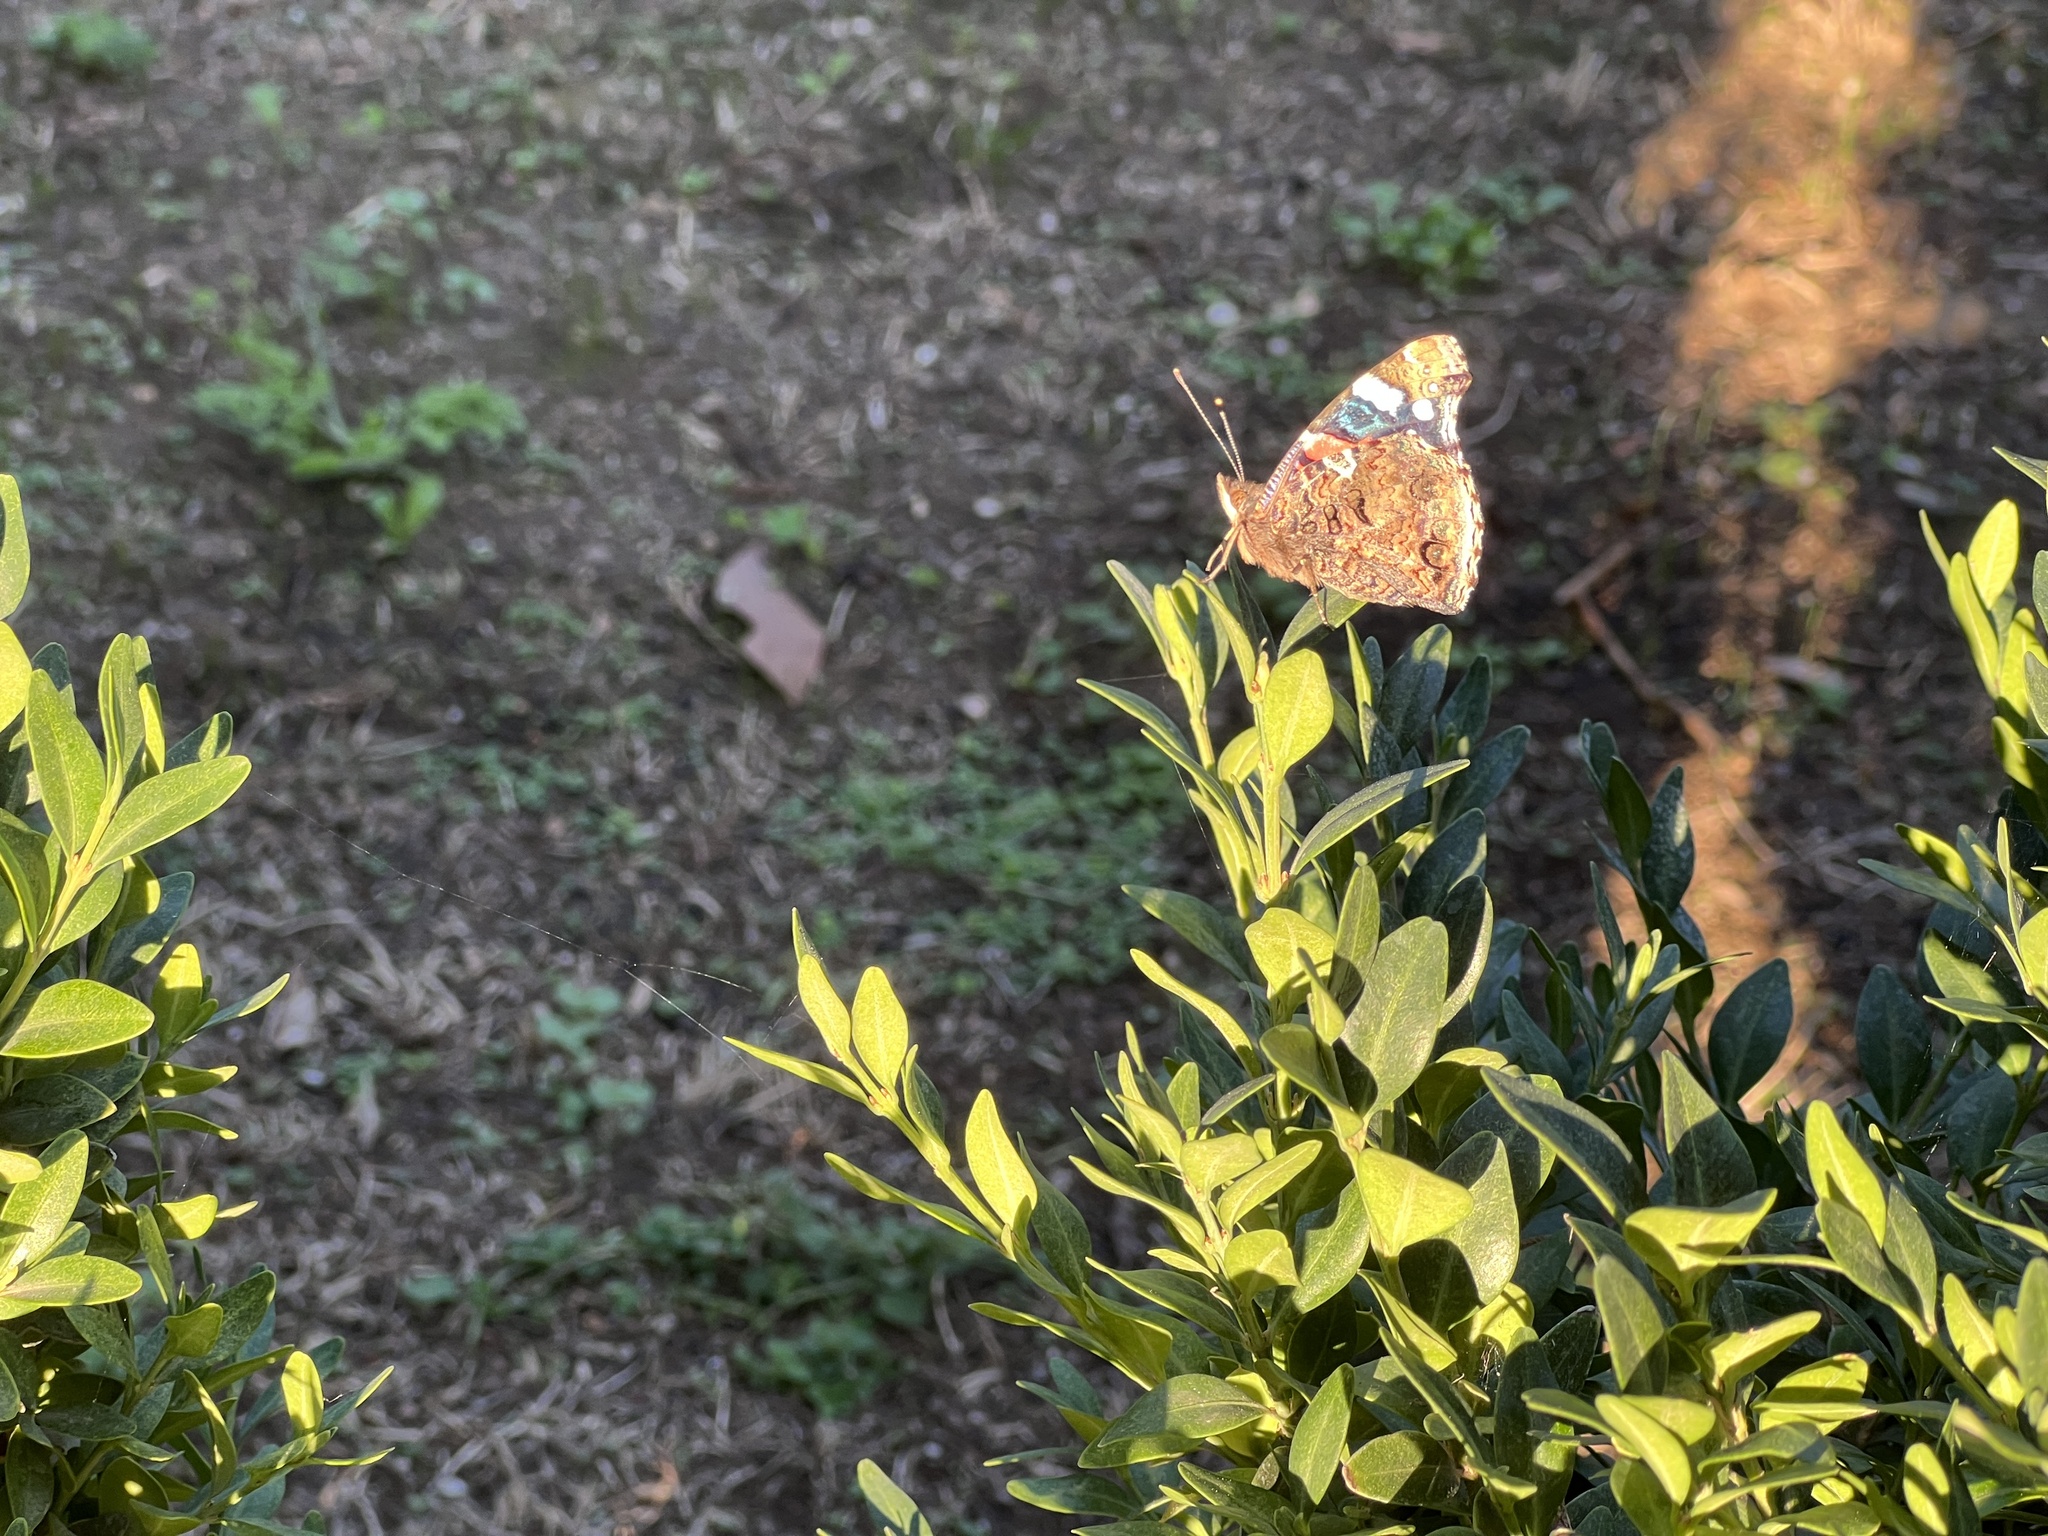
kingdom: Animalia
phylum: Arthropoda
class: Insecta
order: Lepidoptera
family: Nymphalidae
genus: Vanessa
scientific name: Vanessa atalanta
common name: Red admiral
